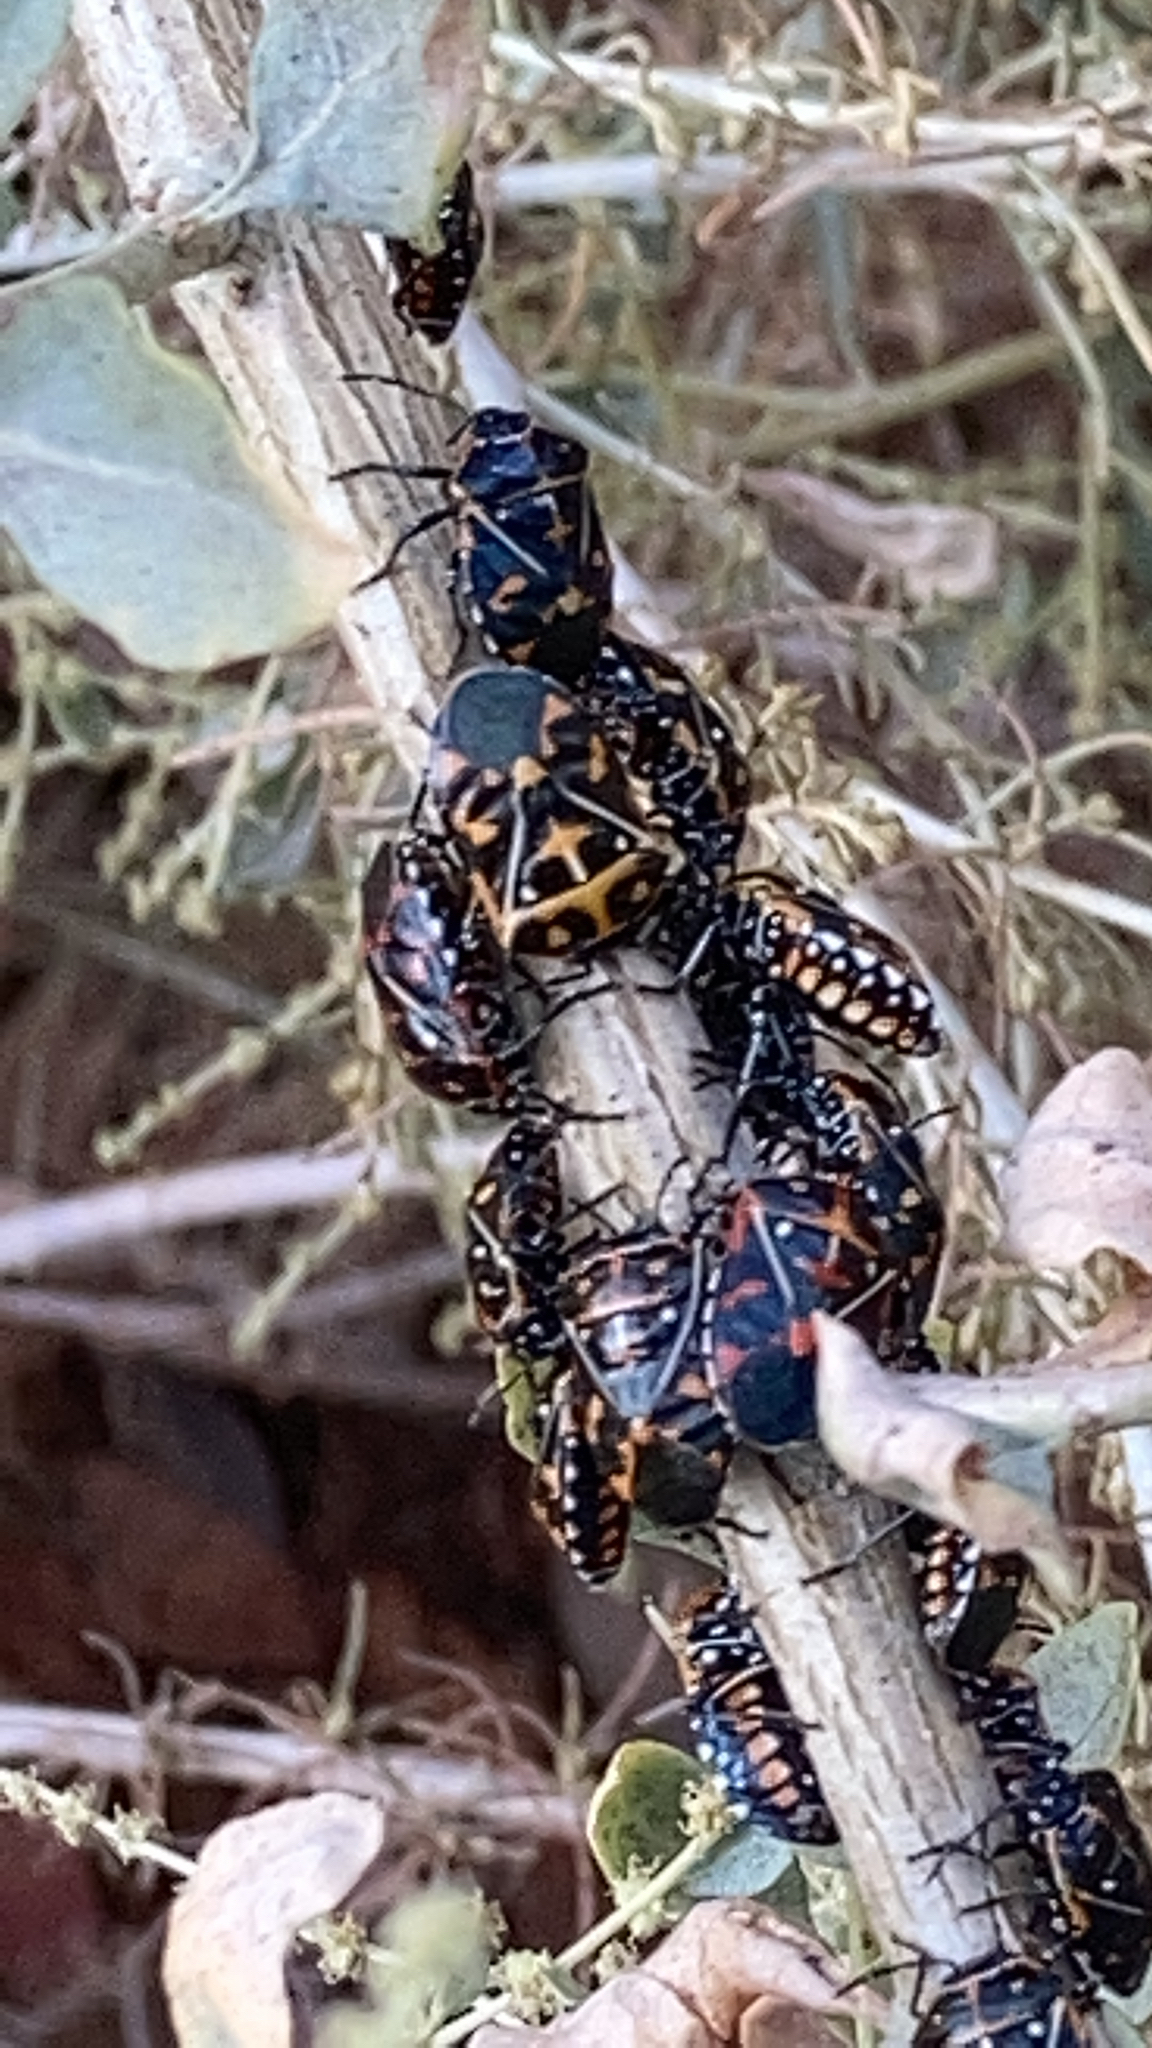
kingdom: Animalia
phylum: Arthropoda
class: Insecta
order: Hemiptera
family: Pentatomidae
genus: Murgantia
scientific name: Murgantia histrionica
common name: Harlequin bug
